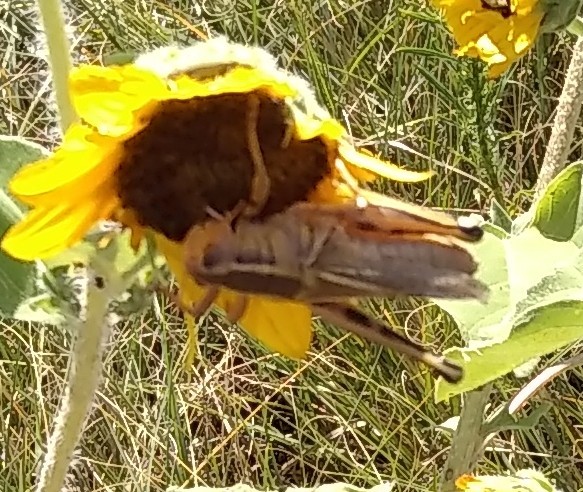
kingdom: Animalia
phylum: Arthropoda
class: Insecta
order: Orthoptera
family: Acrididae
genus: Melanoplus
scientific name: Melanoplus bivittatus
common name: Two-striped grasshopper
